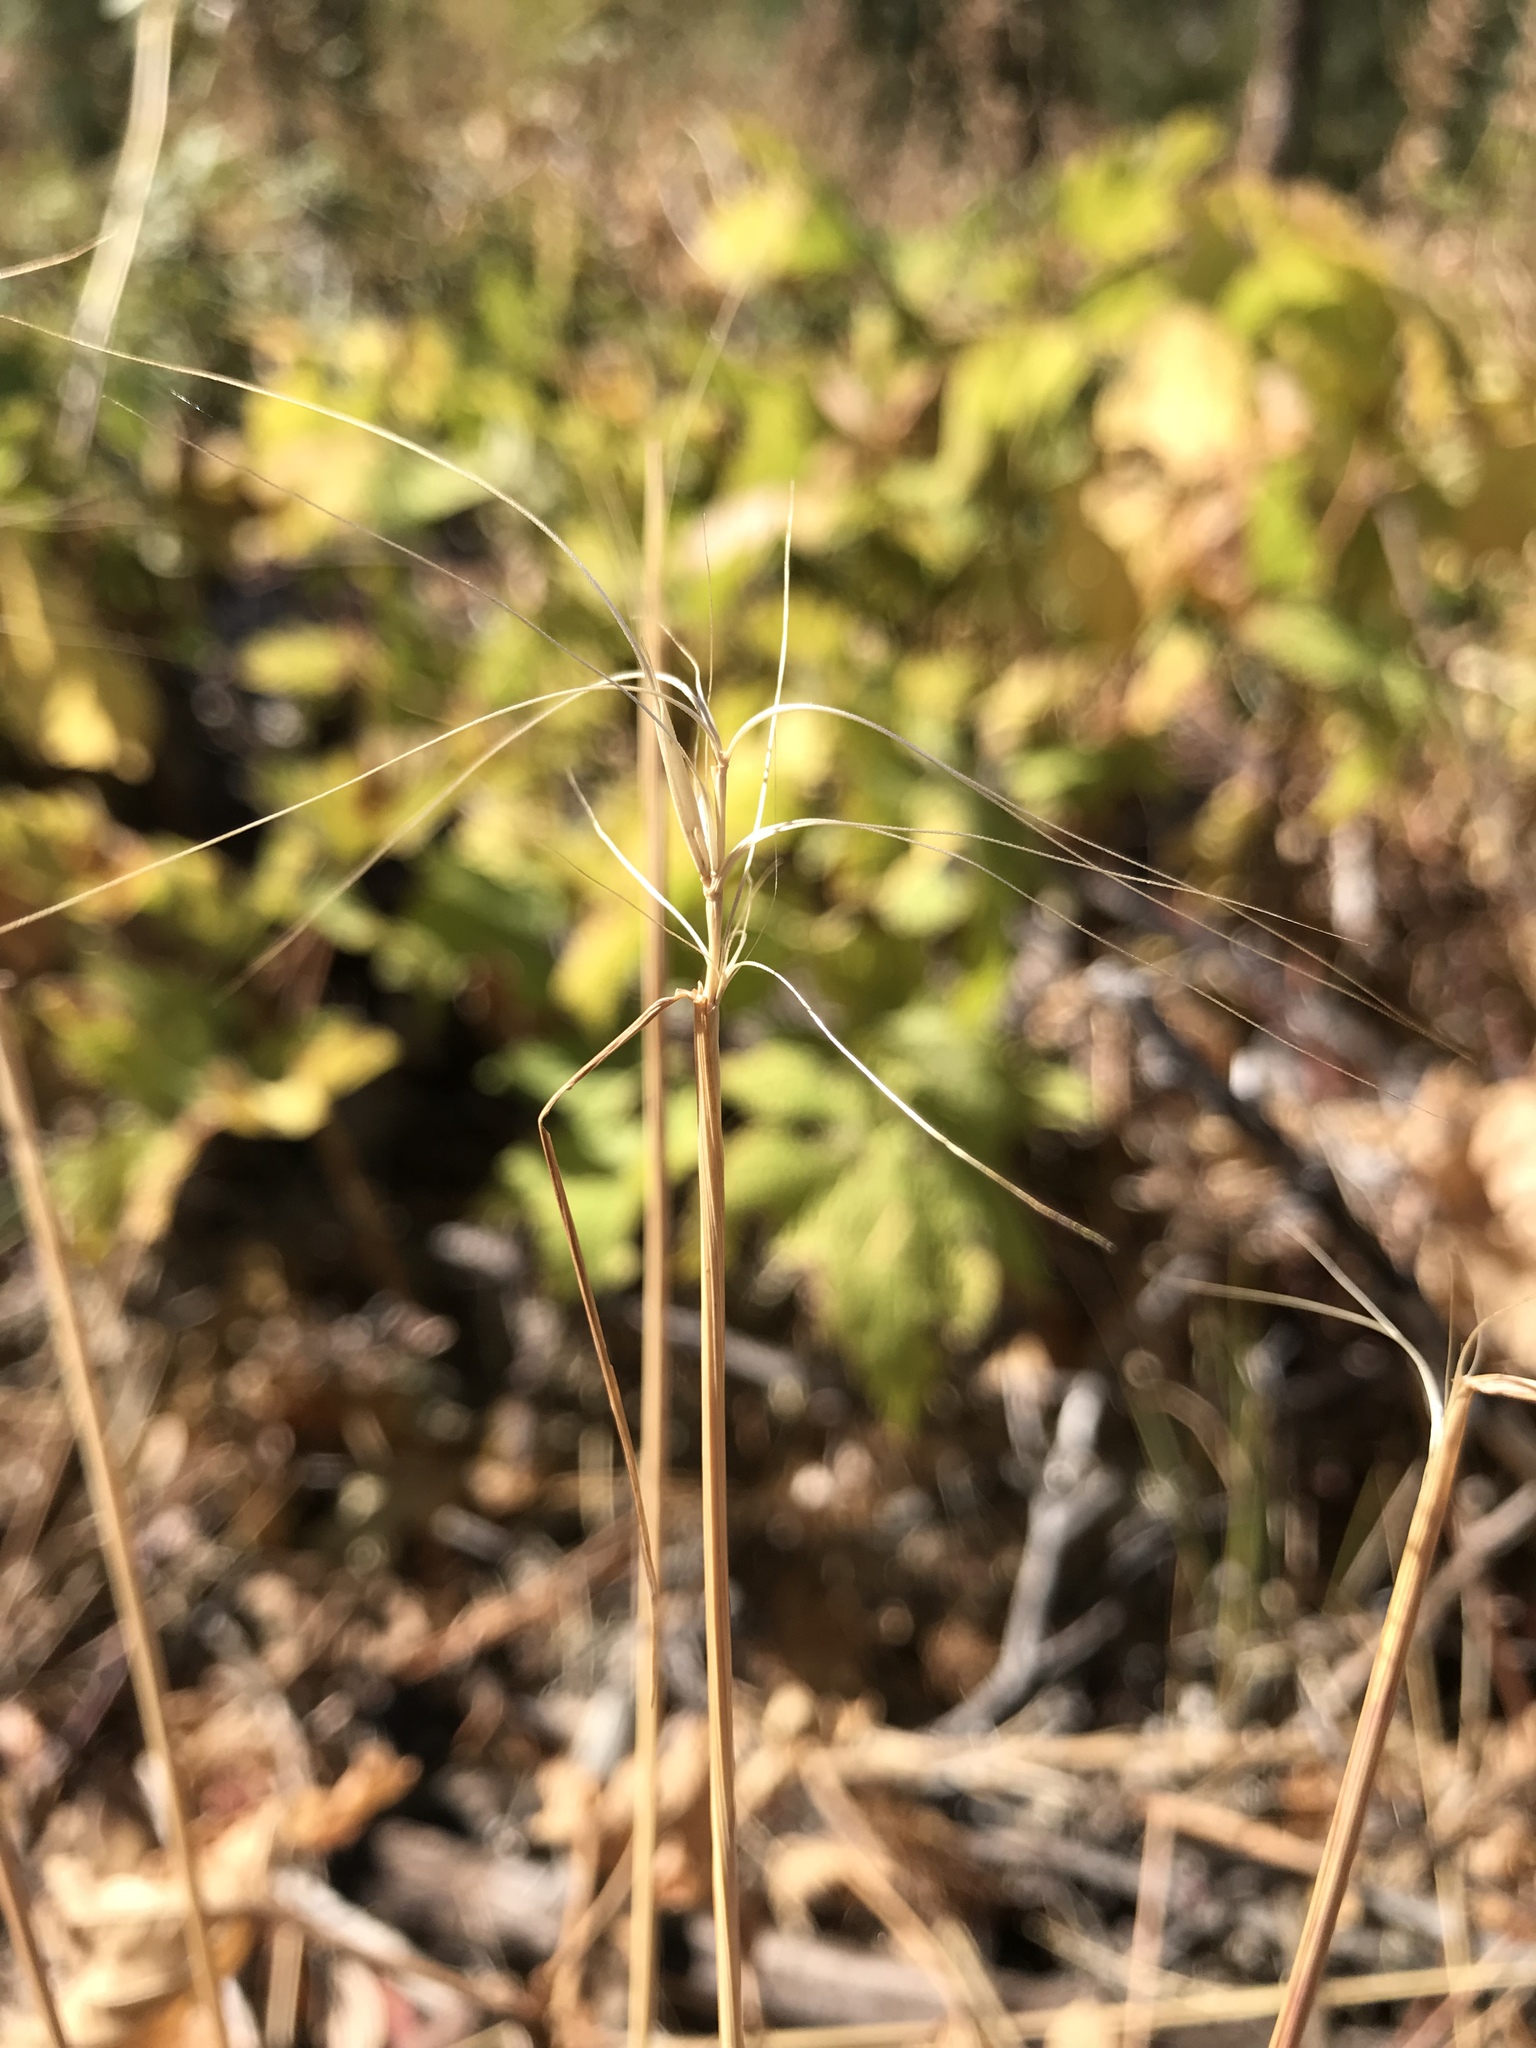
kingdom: Plantae
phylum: Tracheophyta
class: Liliopsida
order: Poales
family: Poaceae
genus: Elymus
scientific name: Elymus elymoides
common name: Bottlebrush squirreltail
